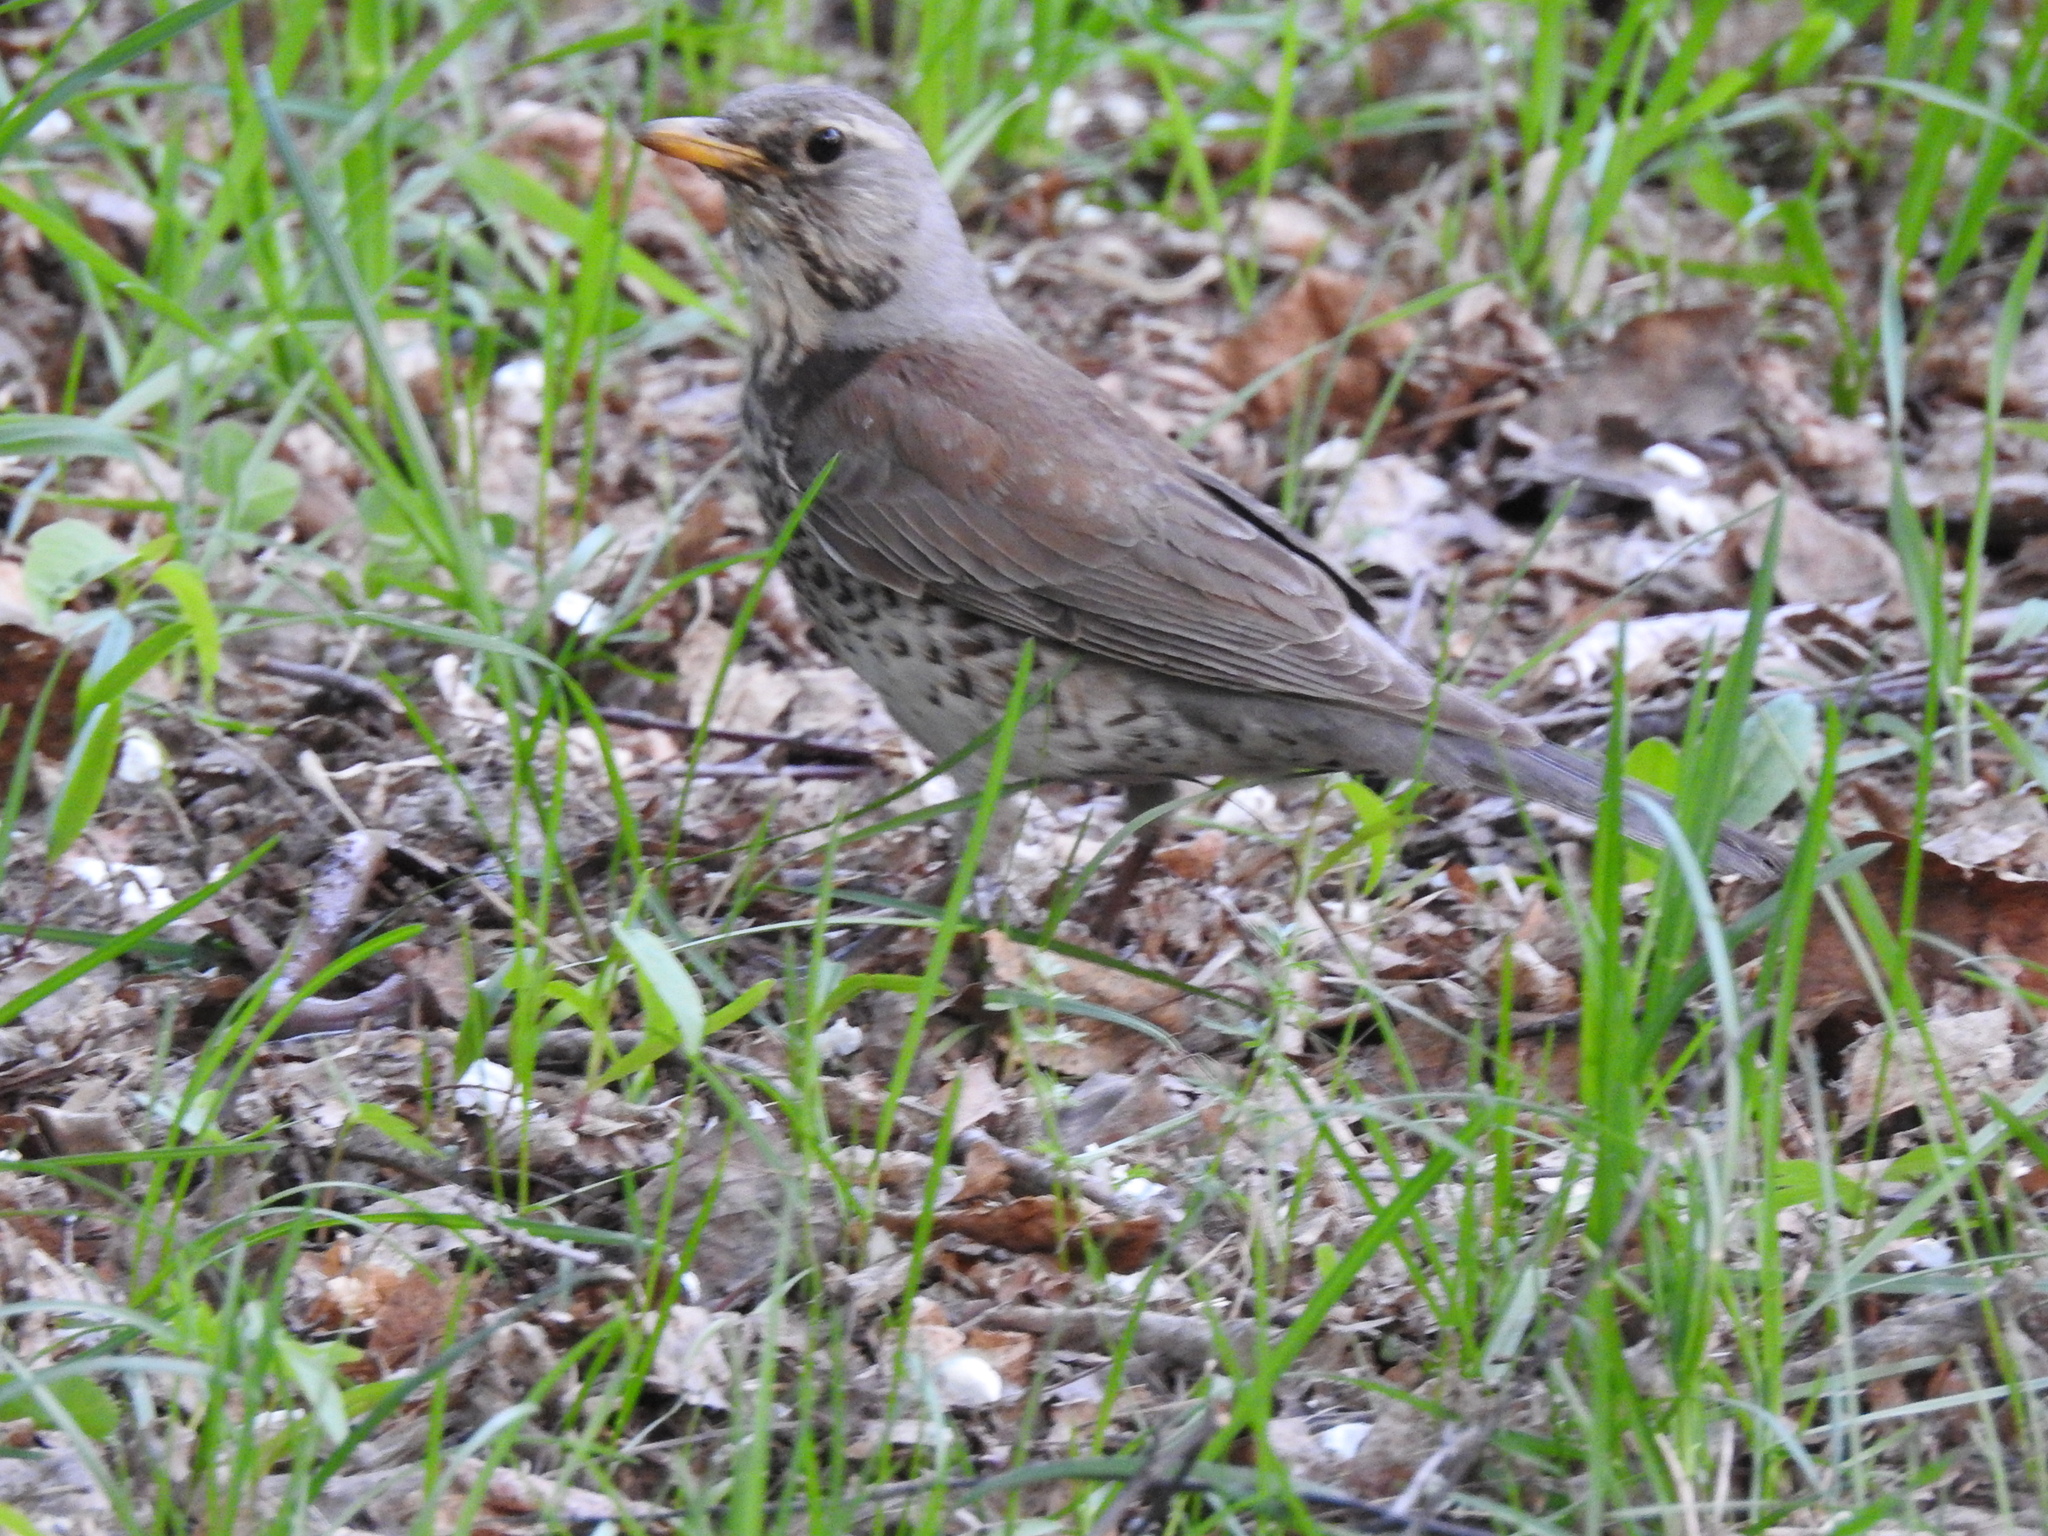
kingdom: Animalia
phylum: Chordata
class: Aves
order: Passeriformes
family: Turdidae
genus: Turdus
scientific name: Turdus pilaris
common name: Fieldfare
